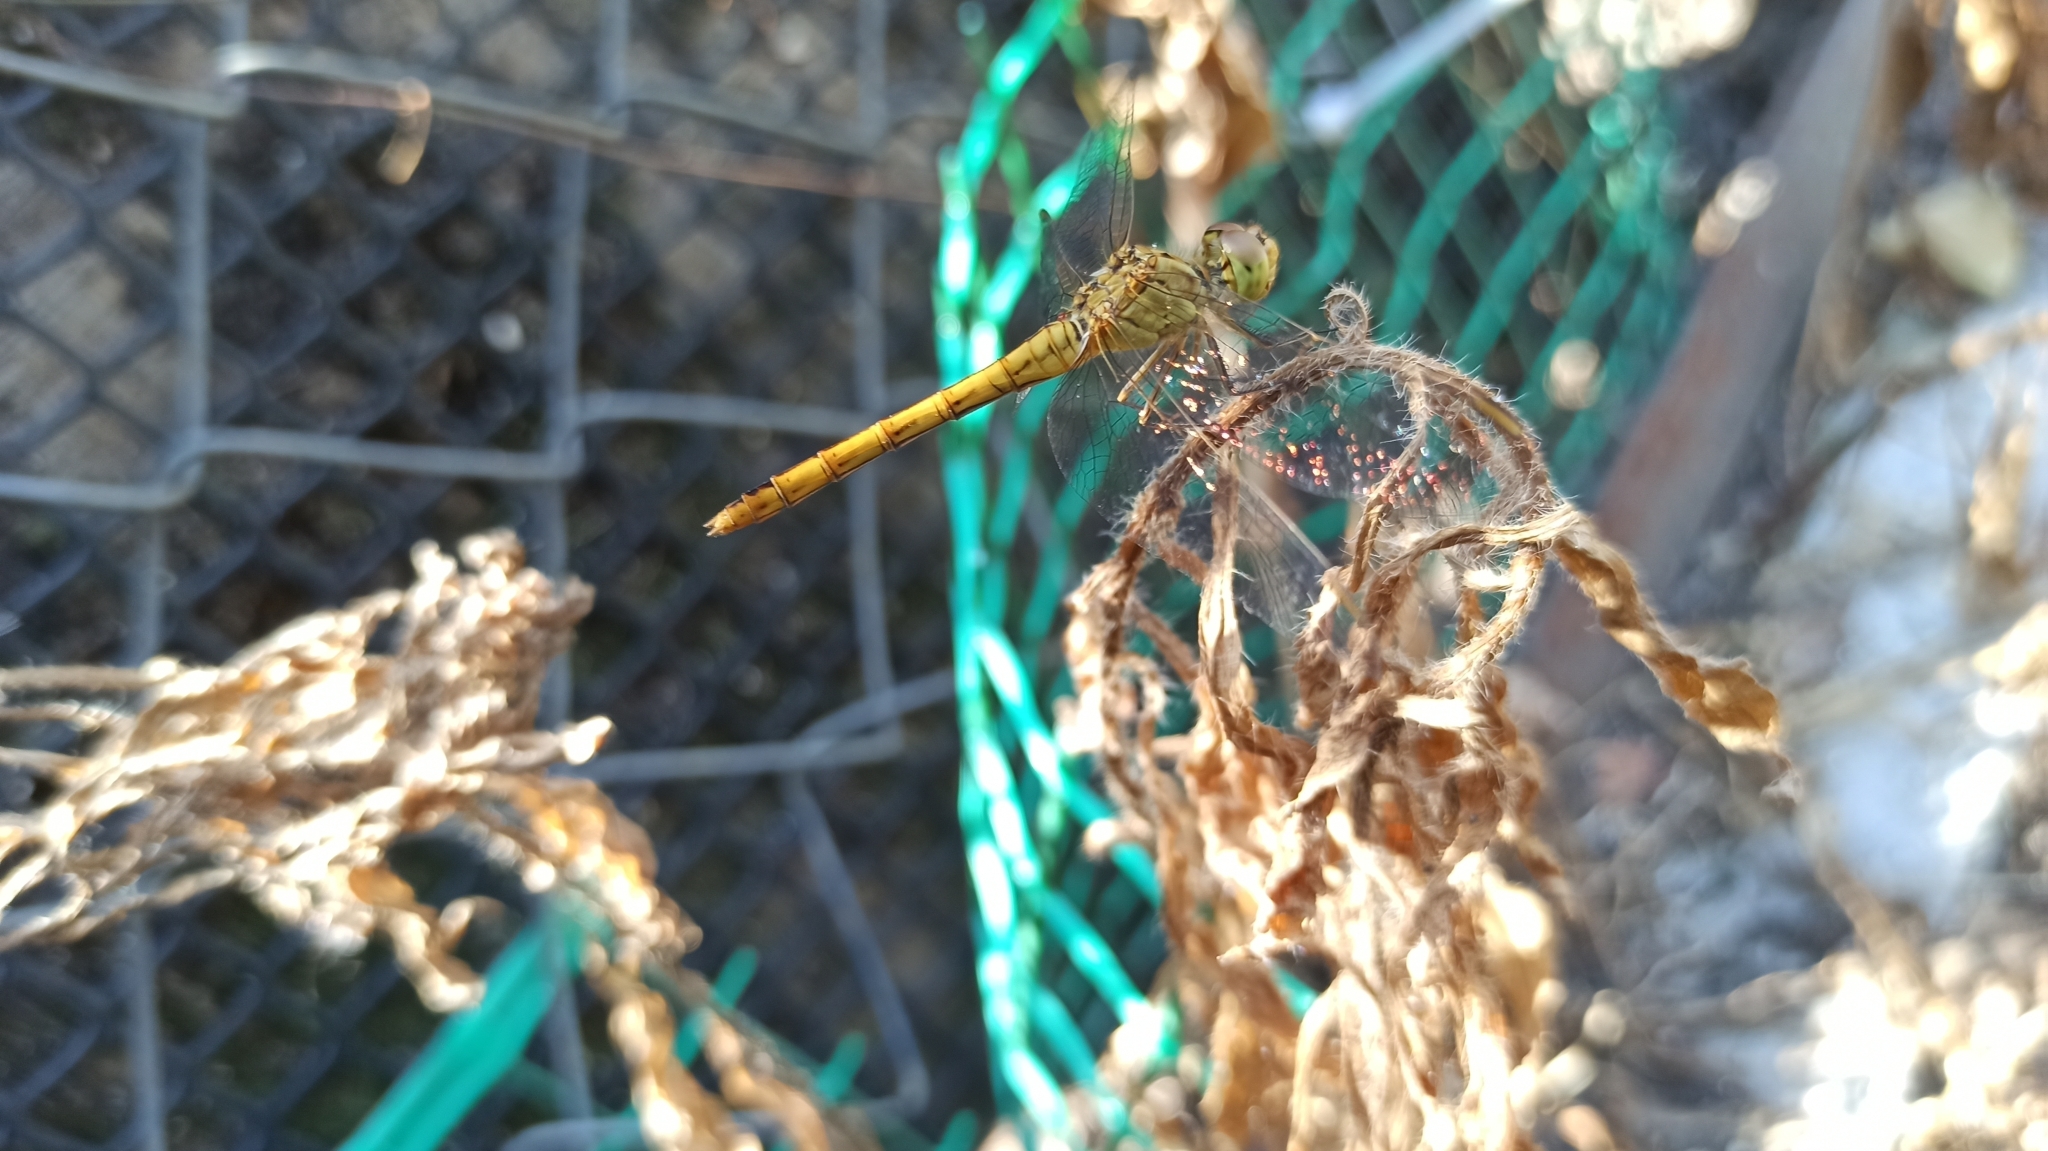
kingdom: Animalia
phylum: Arthropoda
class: Insecta
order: Odonata
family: Libellulidae
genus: Sympetrum
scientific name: Sympetrum meridionale
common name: Southern darter
